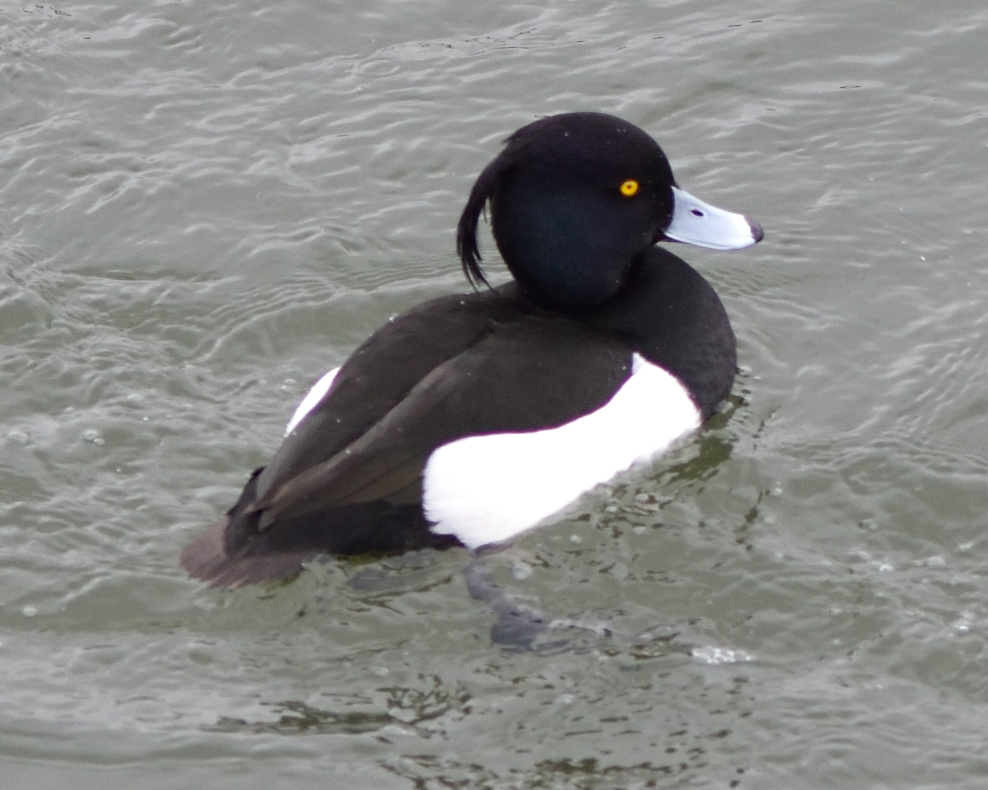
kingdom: Animalia
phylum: Chordata
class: Aves
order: Anseriformes
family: Anatidae
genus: Aythya
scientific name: Aythya fuligula
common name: Tufted duck
